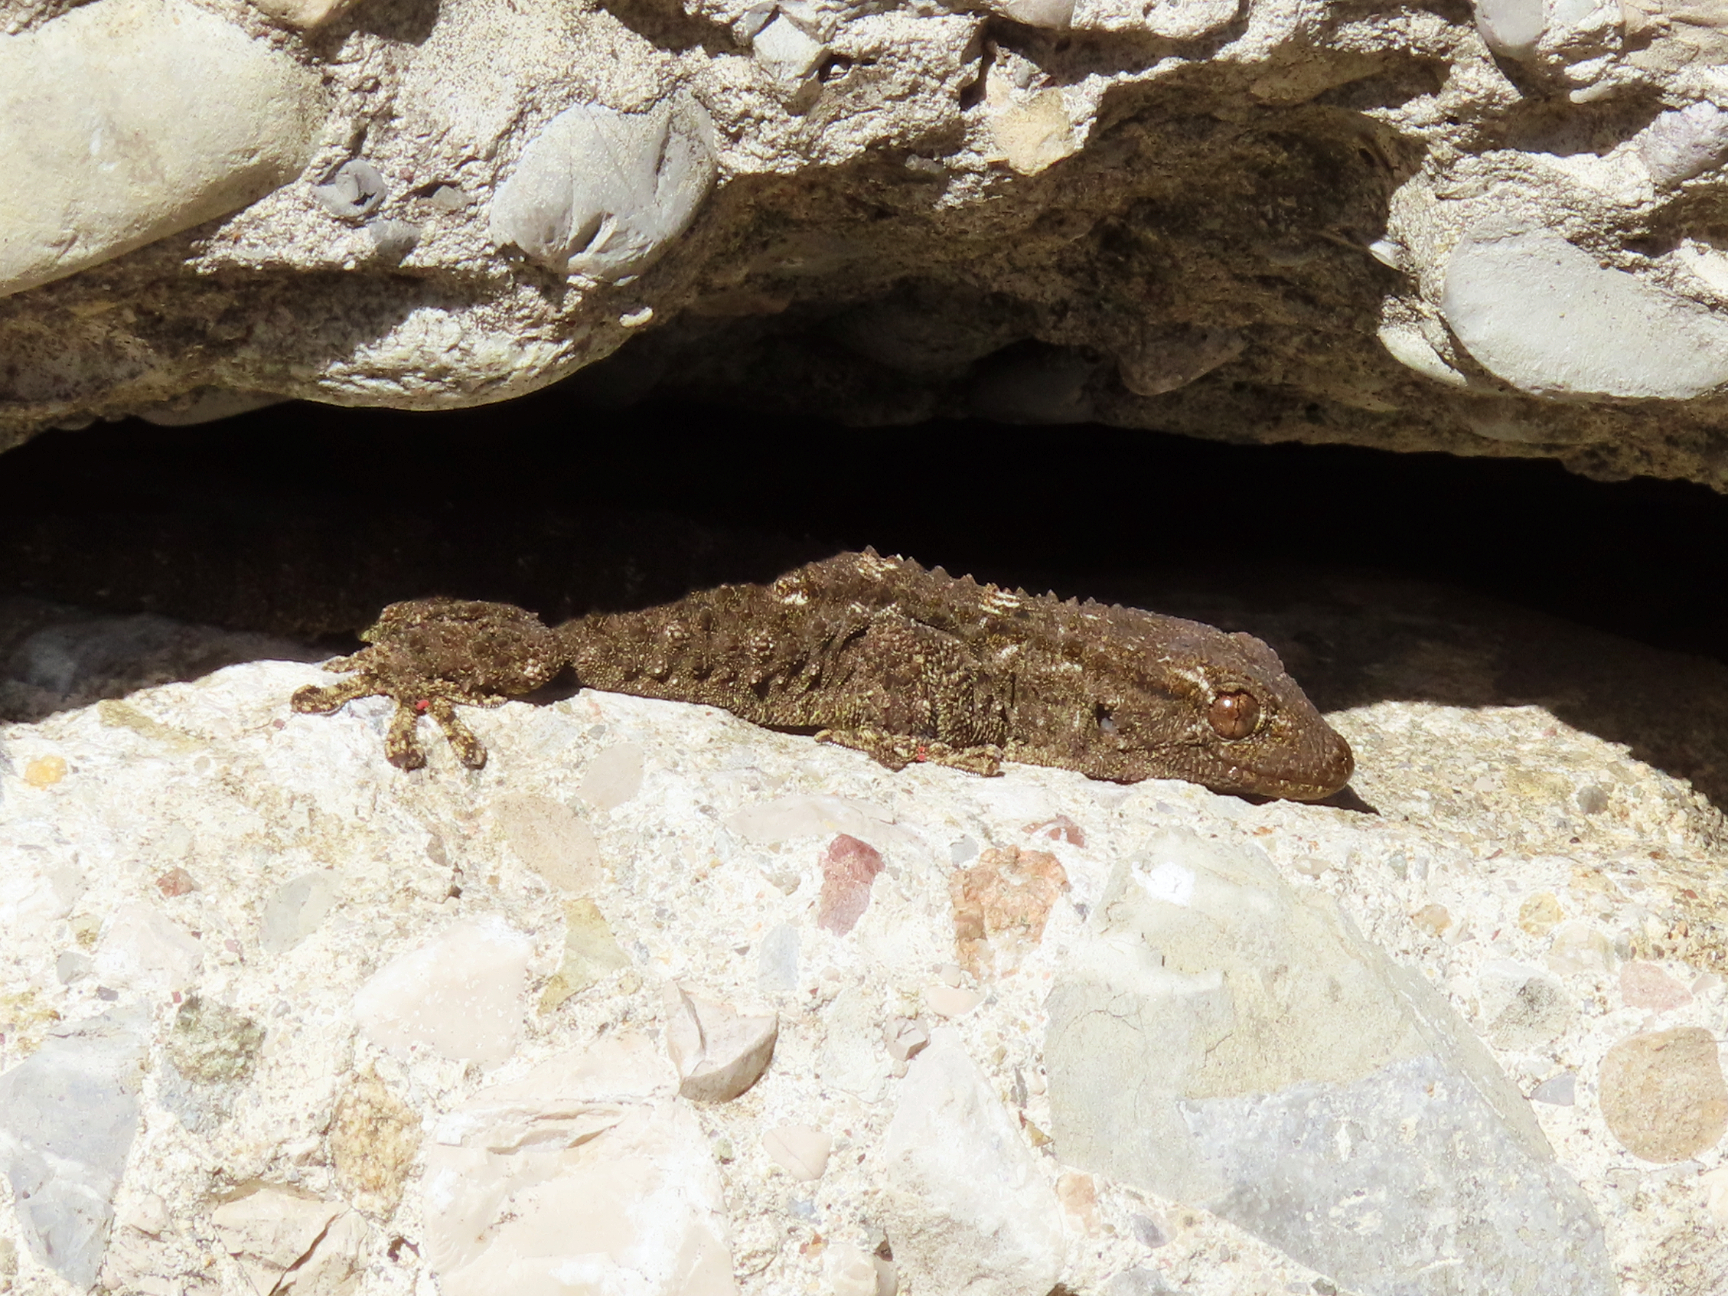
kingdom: Animalia
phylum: Chordata
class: Squamata
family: Phyllodactylidae
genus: Tarentola
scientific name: Tarentola mauritanica
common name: Moorish gecko
